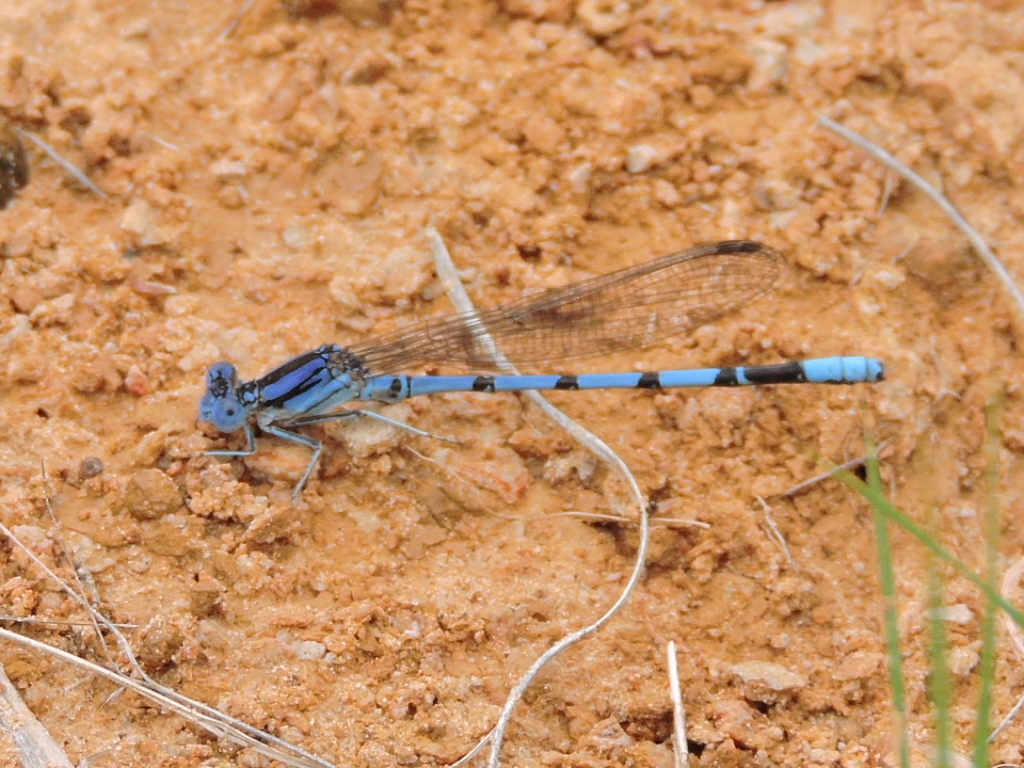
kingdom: Animalia
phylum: Arthropoda
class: Insecta
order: Odonata
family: Coenagrionidae
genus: Argia
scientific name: Argia nahuana
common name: Aztec dancer
